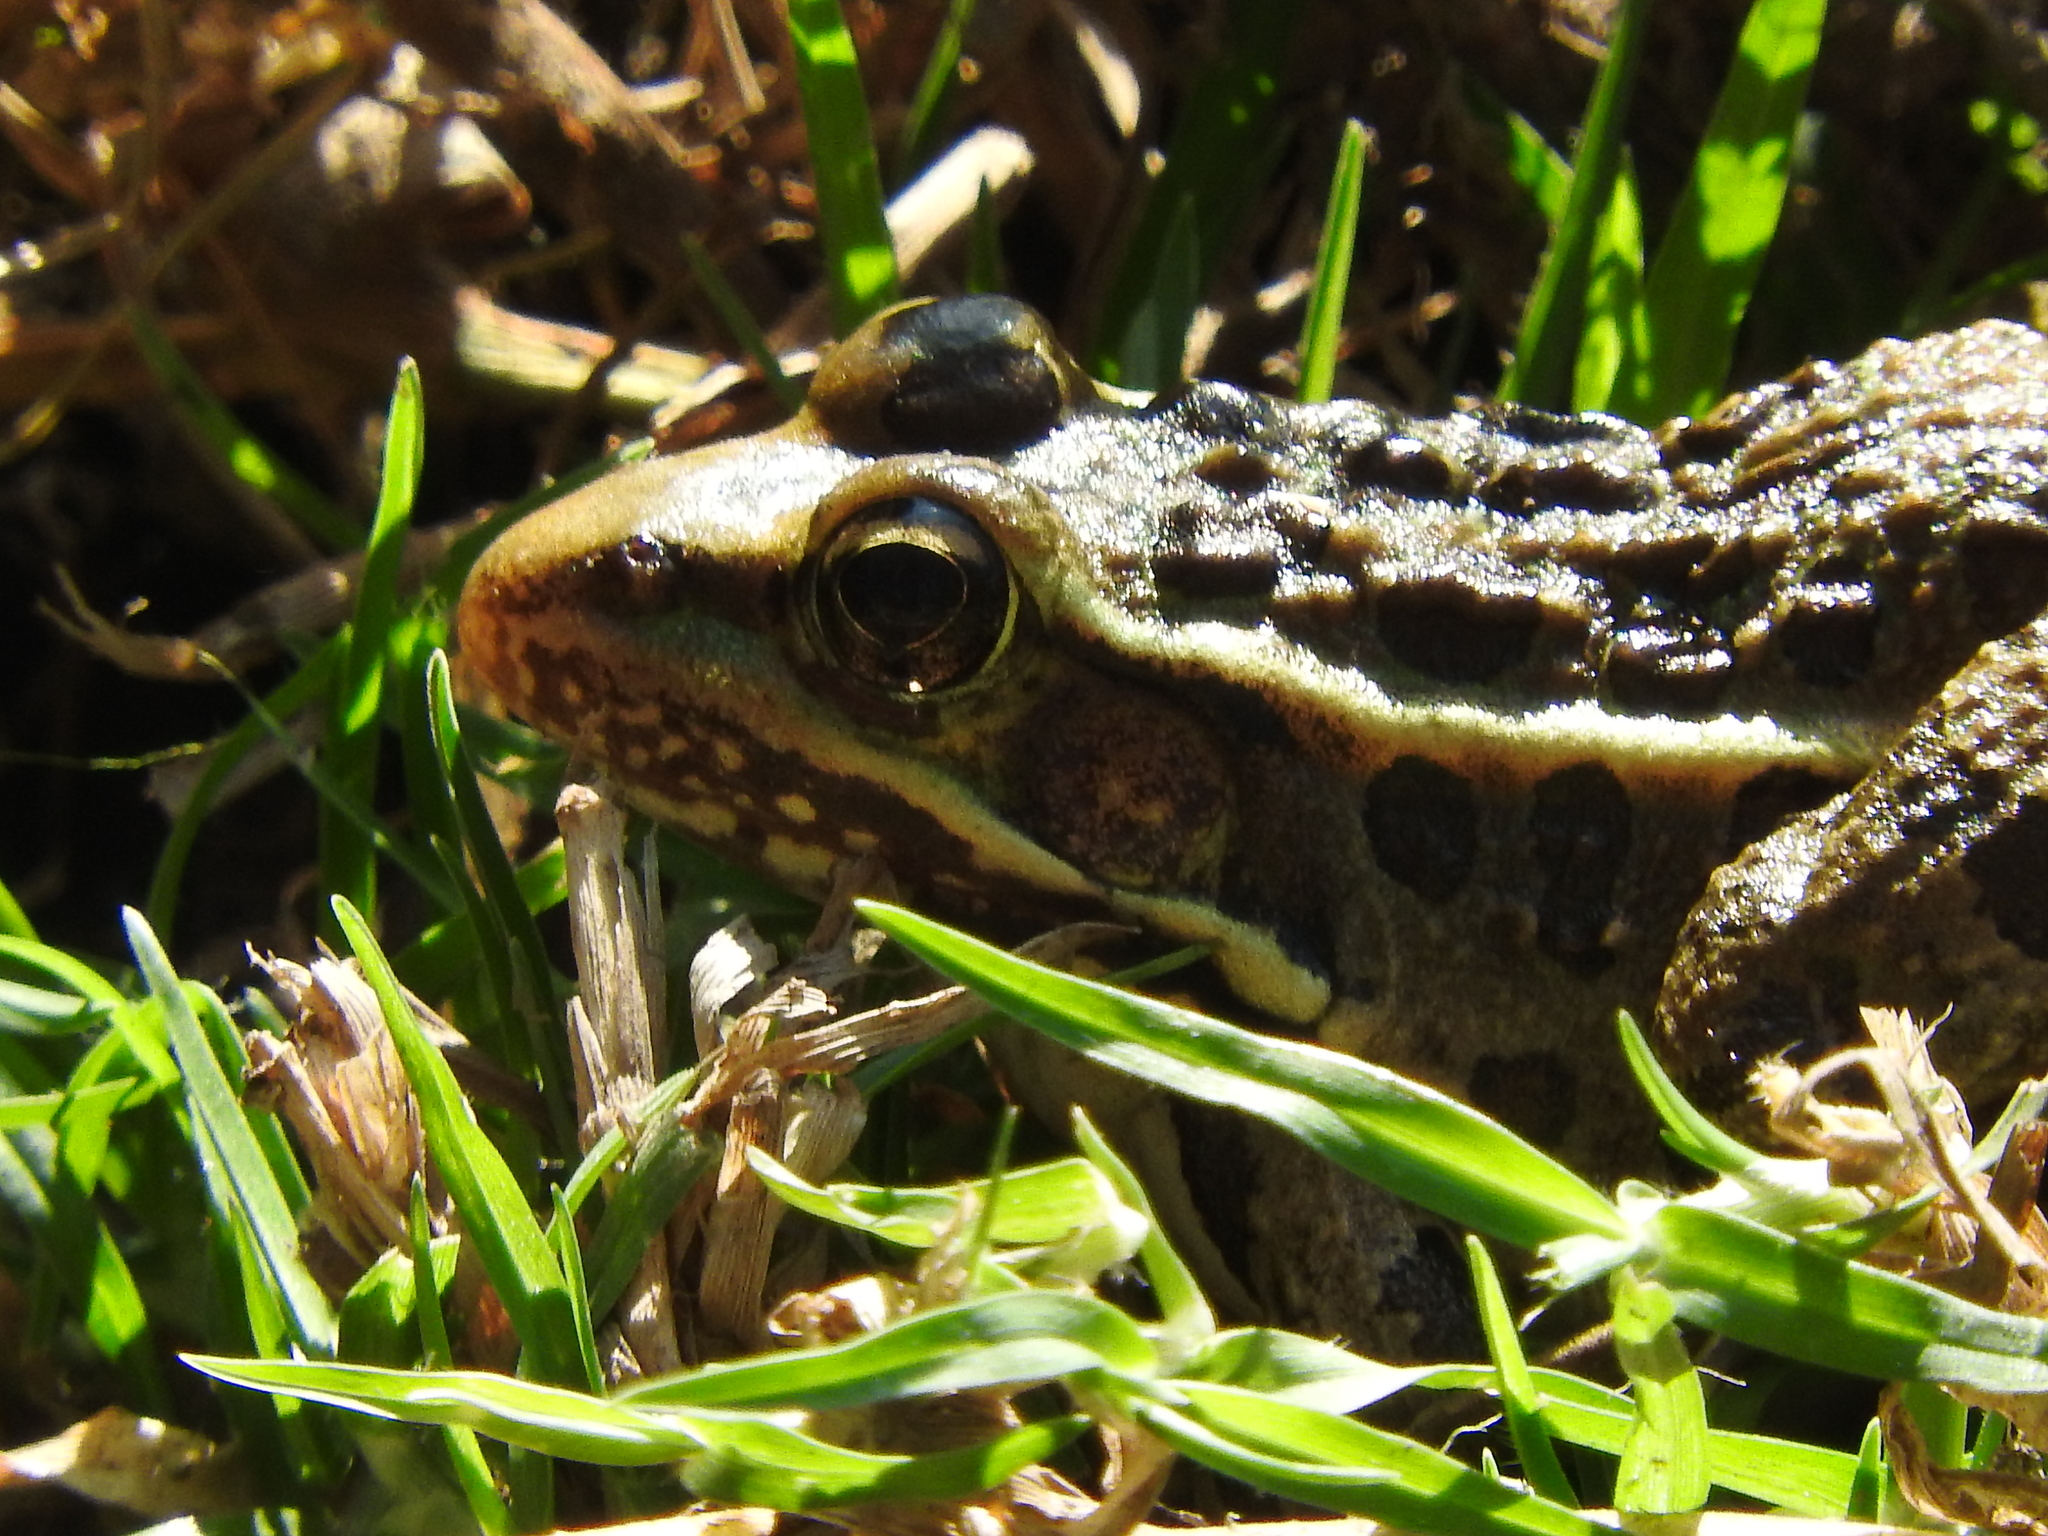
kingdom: Animalia
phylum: Chordata
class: Amphibia
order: Anura
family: Ranidae
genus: Lithobates
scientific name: Lithobates neovolcanicus
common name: Transverse volcanic leopard frog
